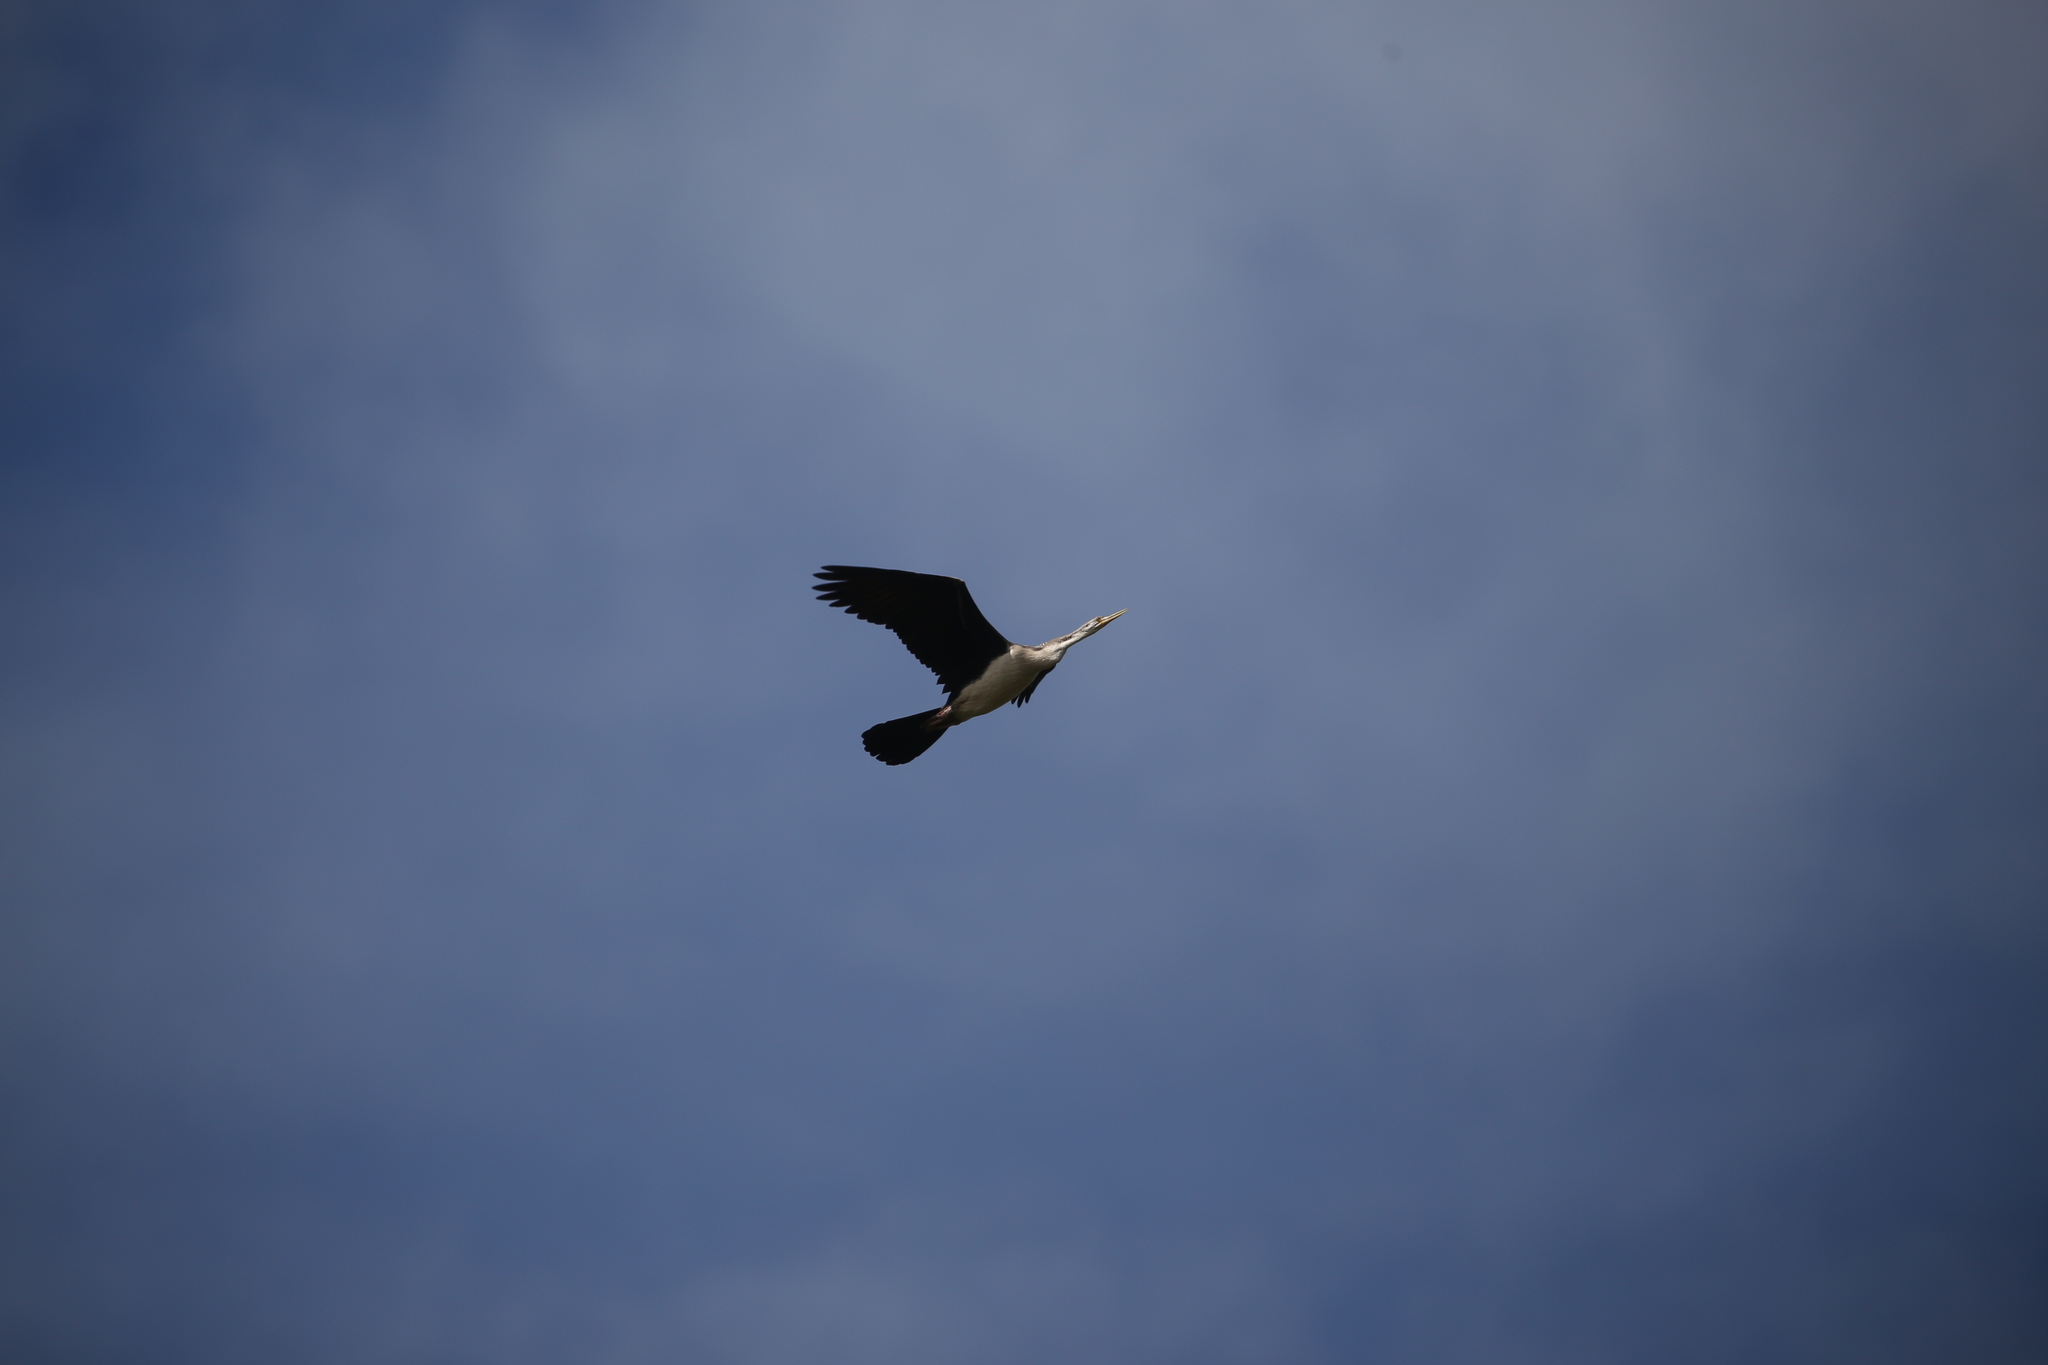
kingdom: Animalia
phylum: Chordata
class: Aves
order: Suliformes
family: Anhingidae
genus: Anhinga
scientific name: Anhinga novaehollandiae
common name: Australasian darter
